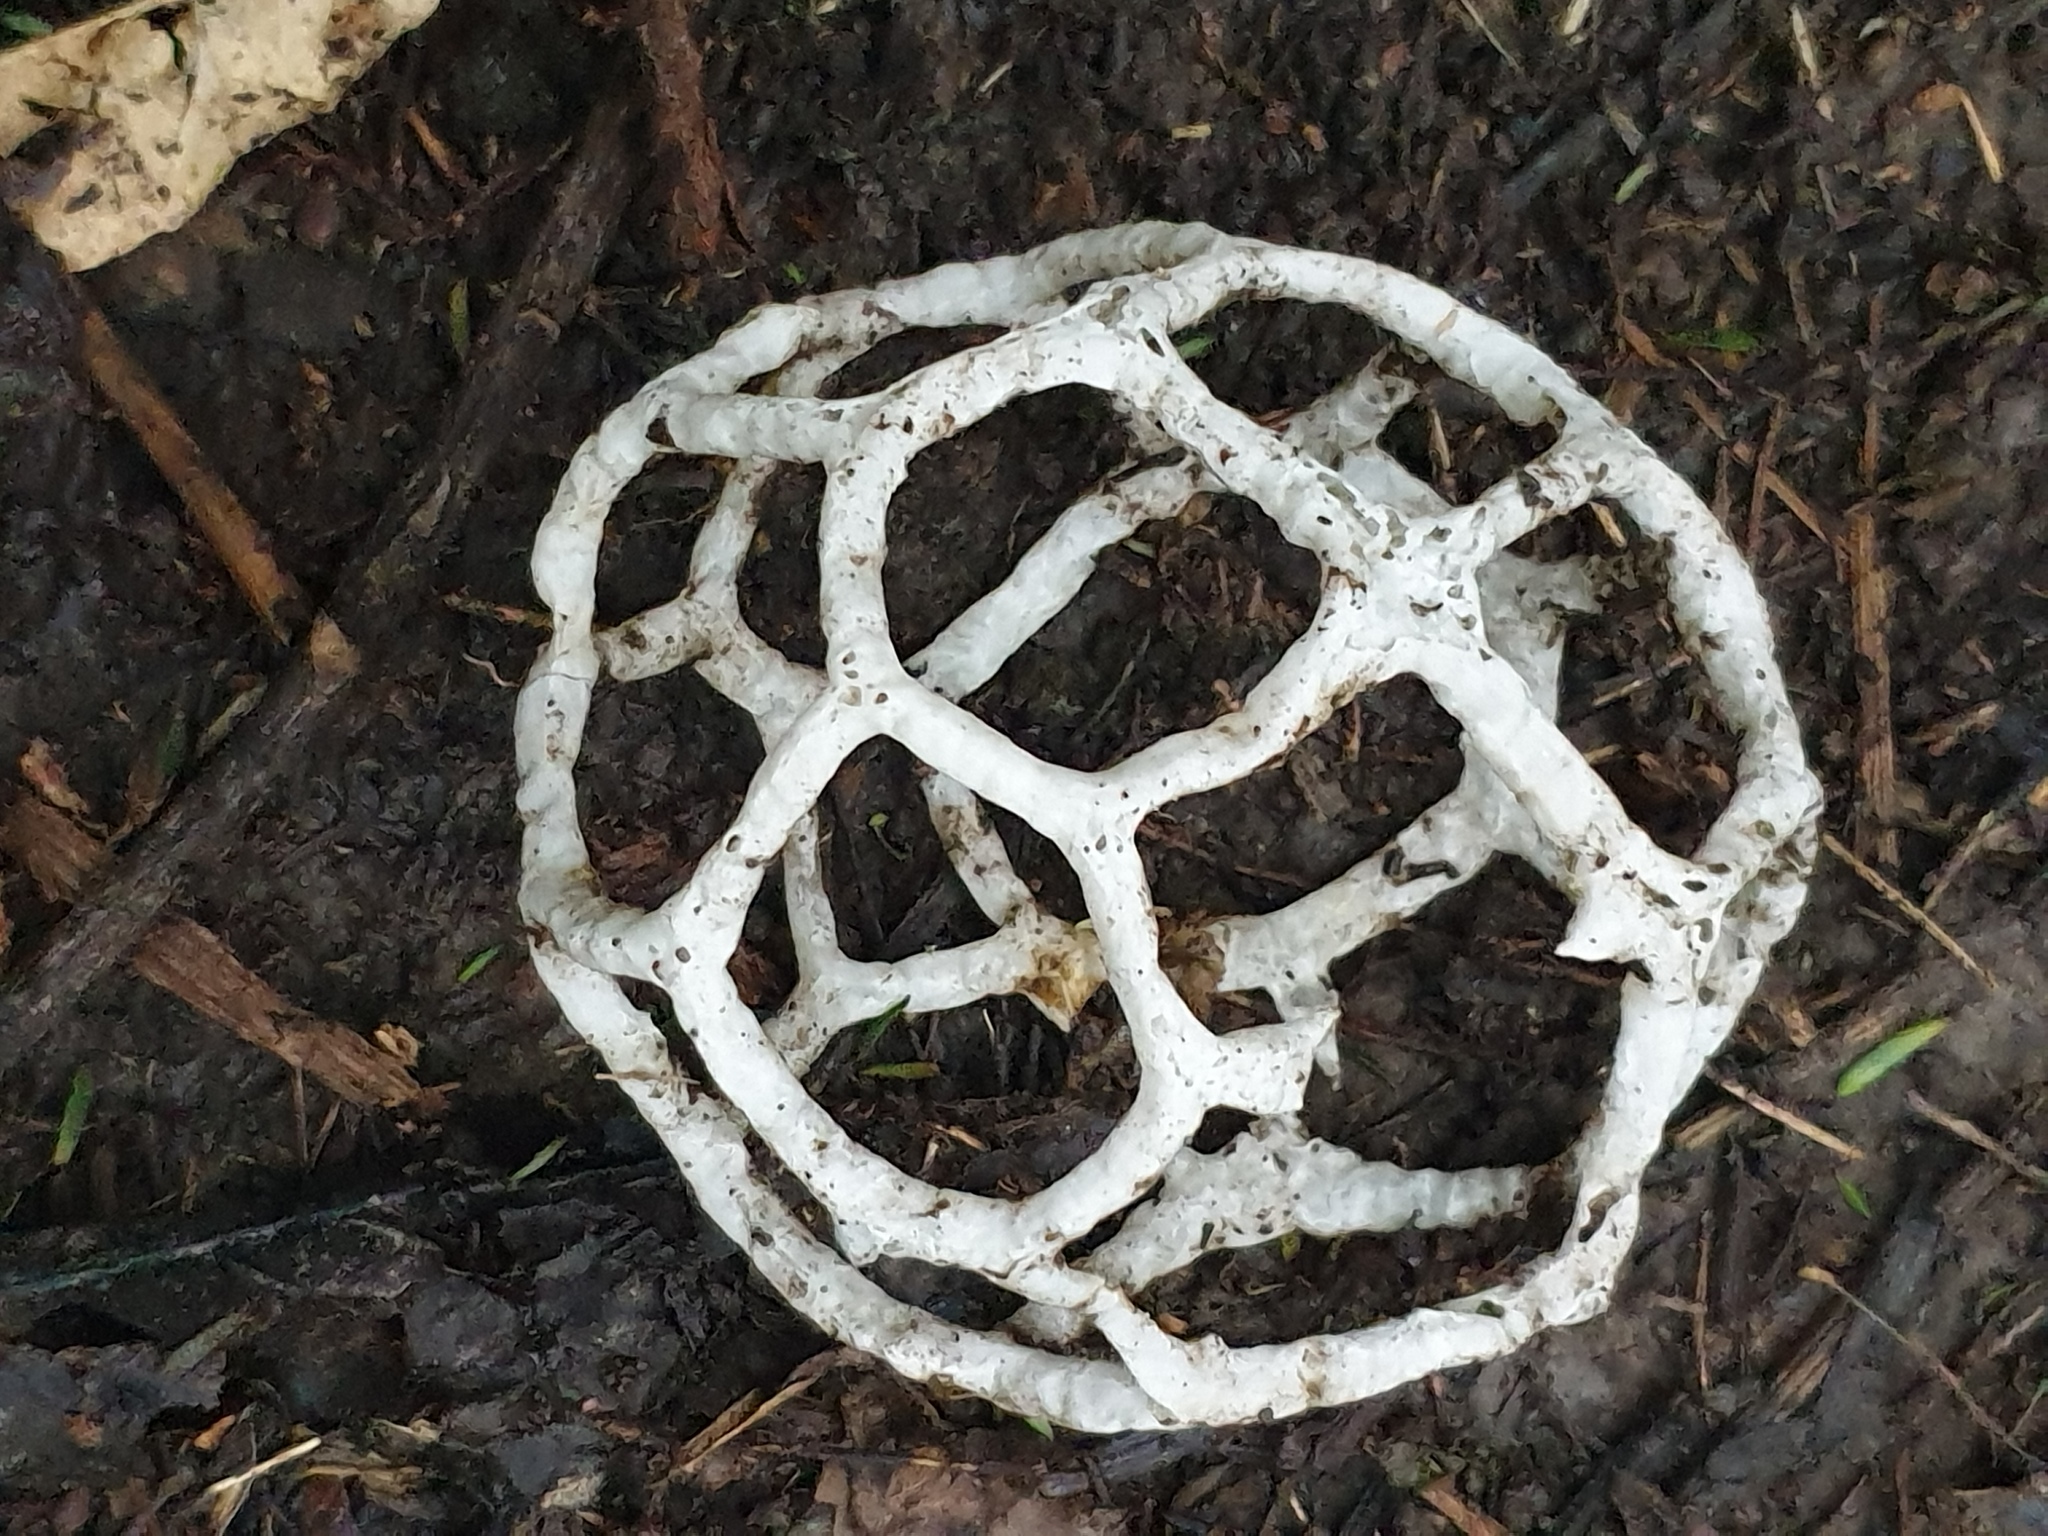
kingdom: Fungi
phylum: Basidiomycota
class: Agaricomycetes
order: Phallales
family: Phallaceae
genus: Ileodictyon
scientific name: Ileodictyon cibarium
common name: Basket fungus
